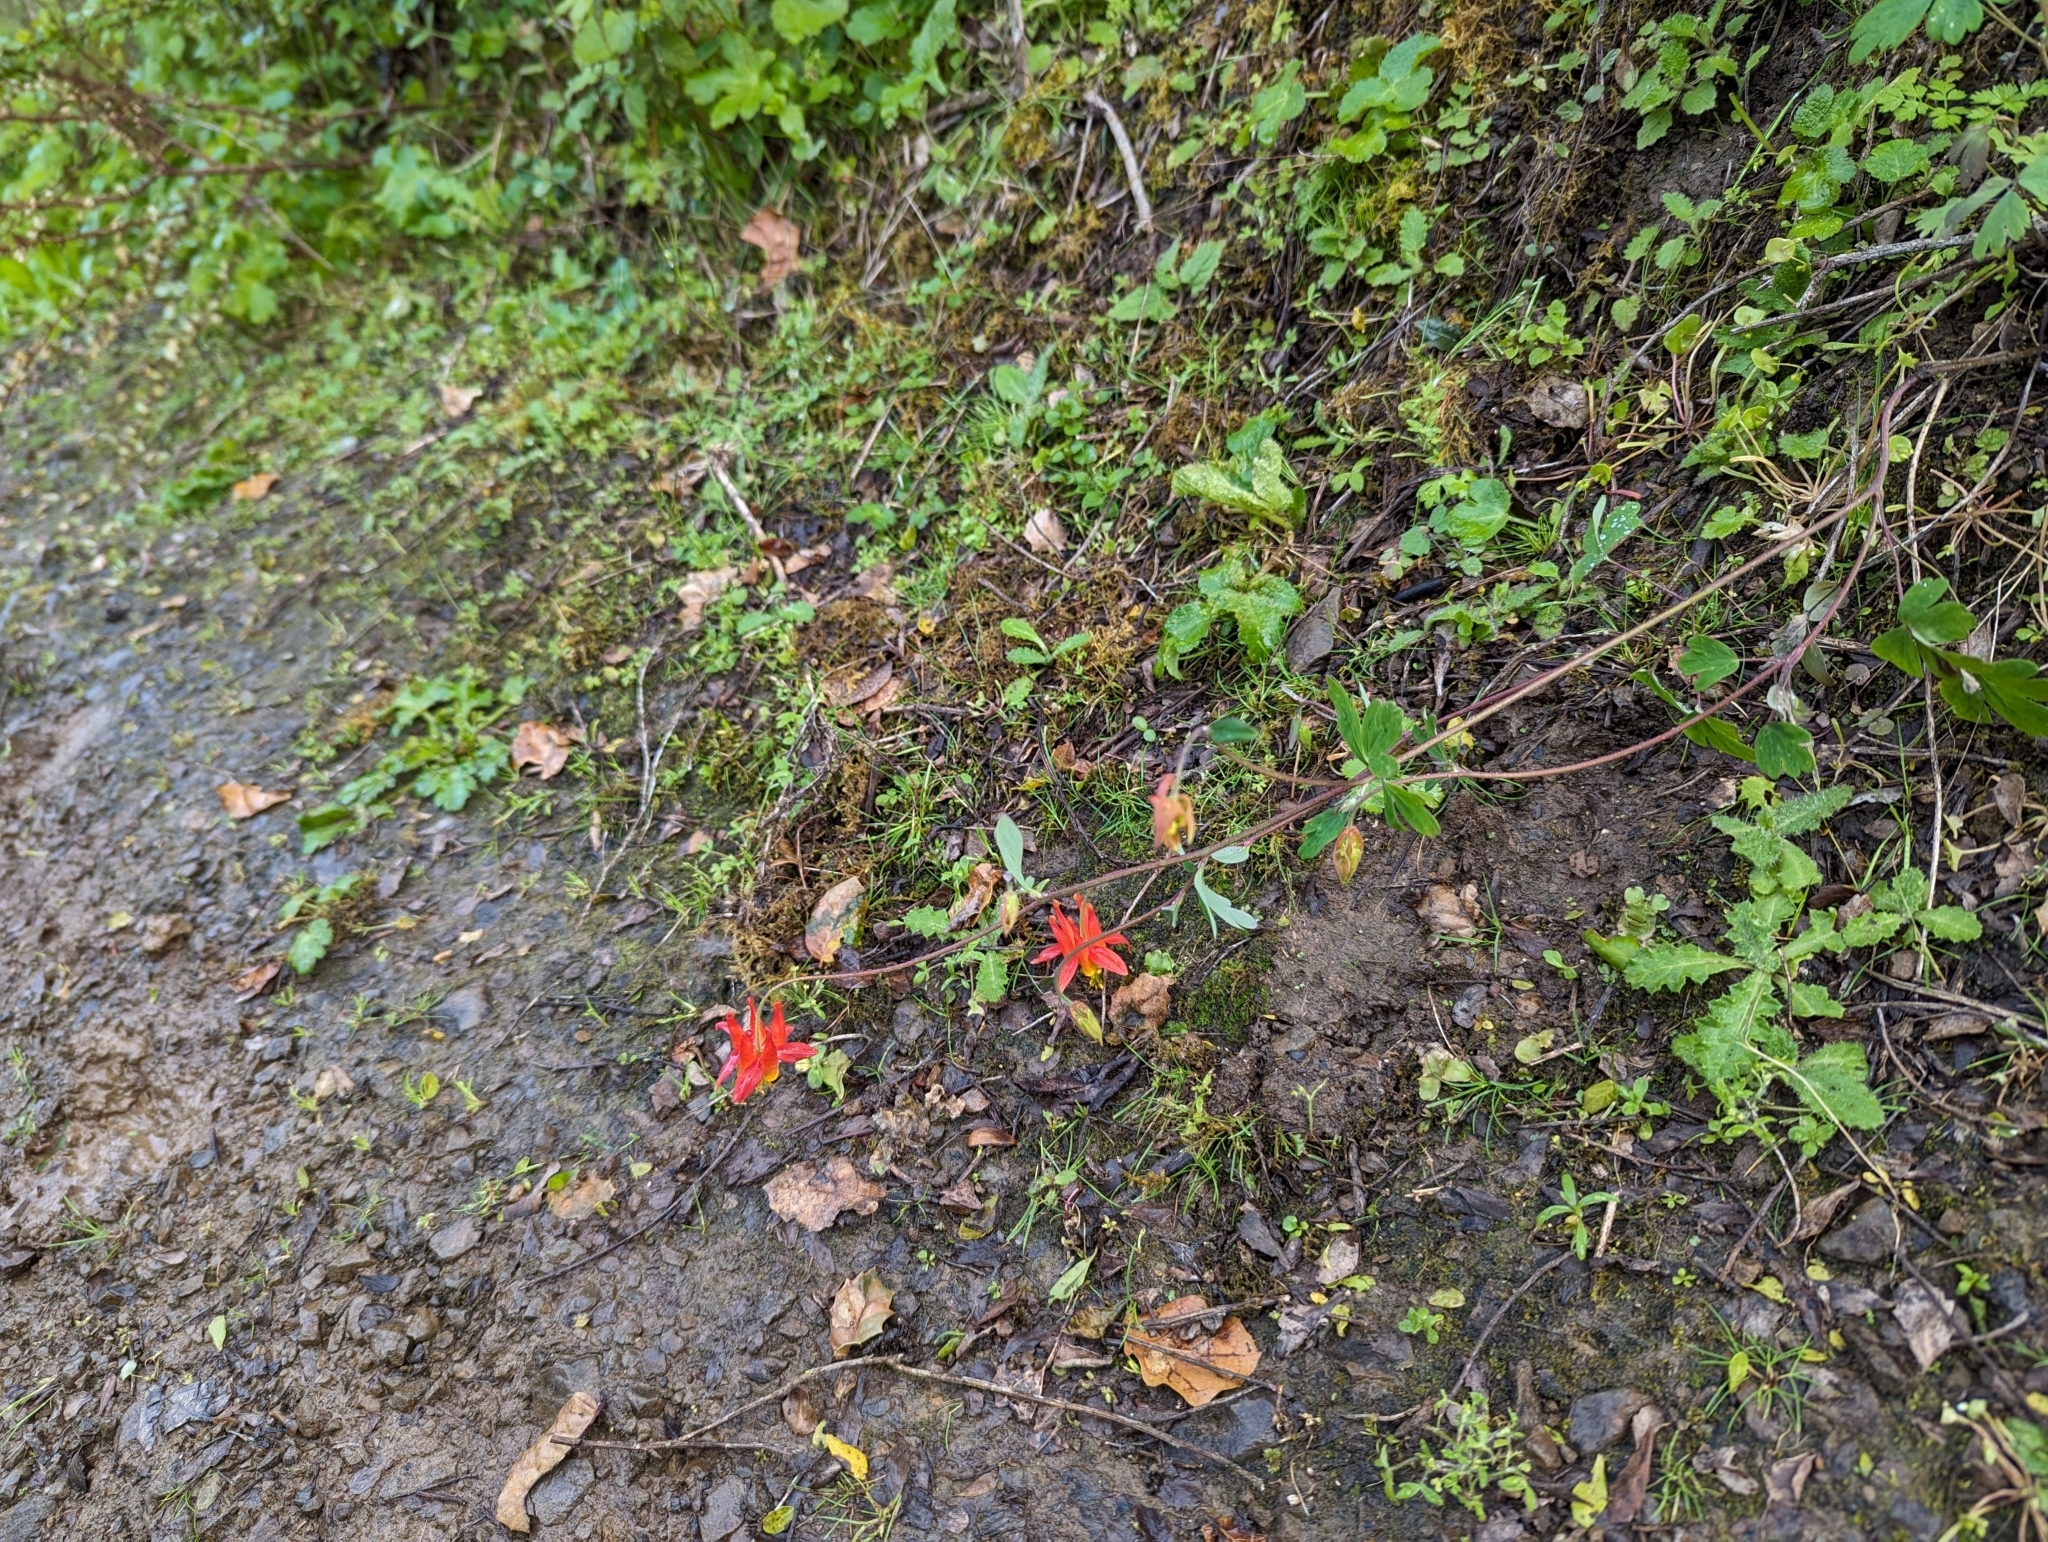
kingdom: Plantae
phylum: Tracheophyta
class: Magnoliopsida
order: Ranunculales
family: Ranunculaceae
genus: Aquilegia
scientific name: Aquilegia formosa
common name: Sitka columbine
